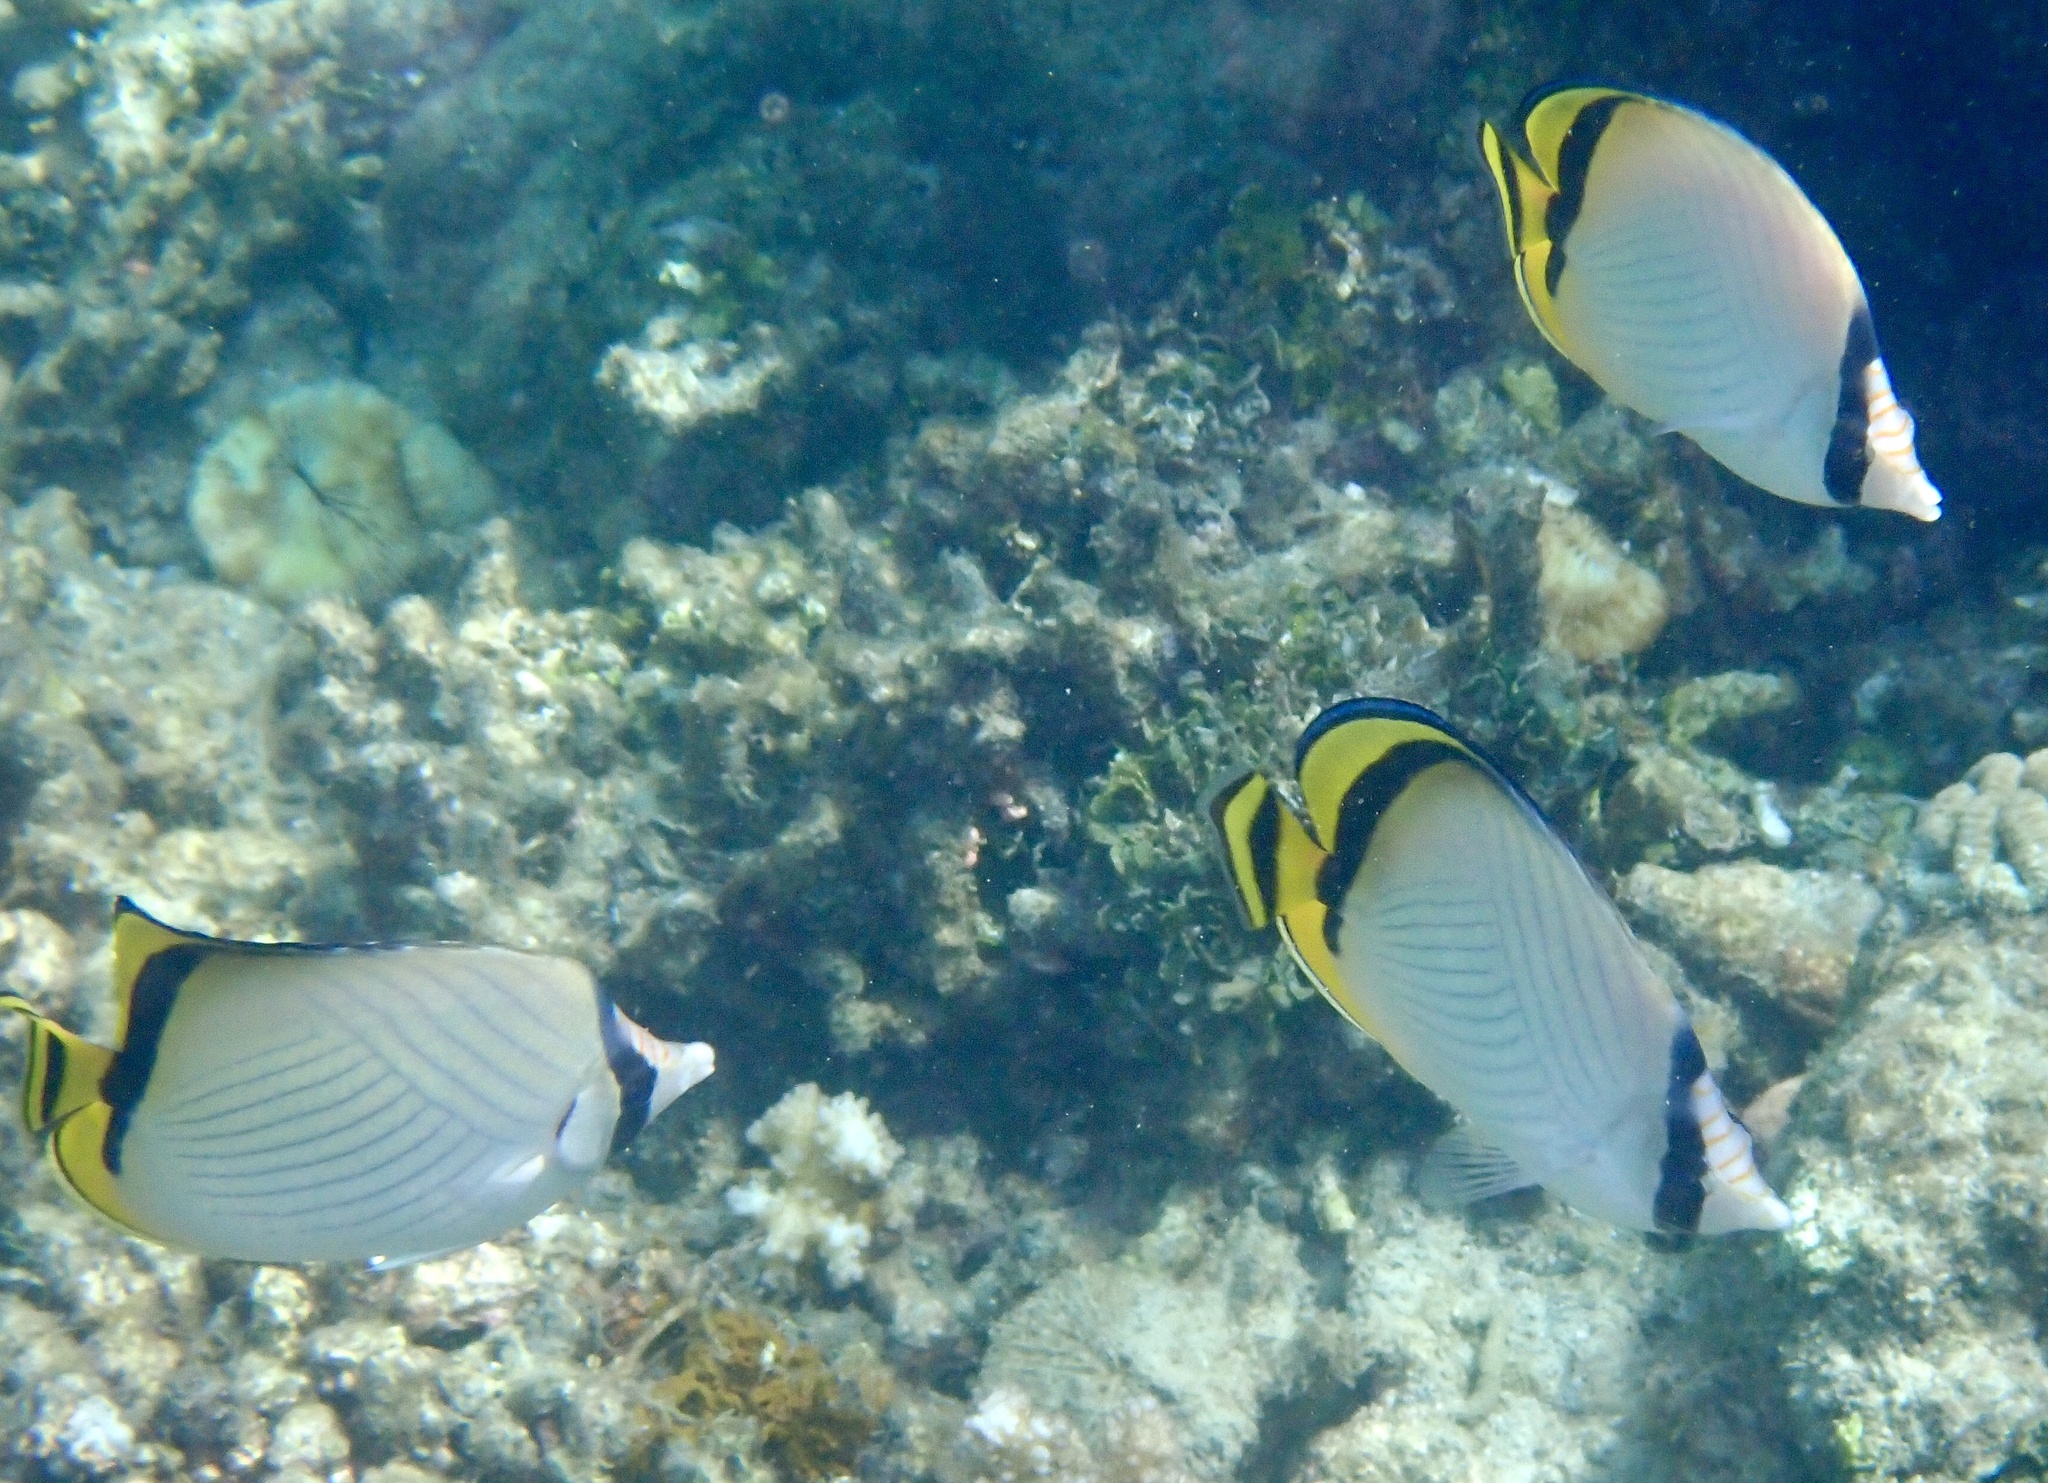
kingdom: Animalia
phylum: Chordata
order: Perciformes
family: Chaetodontidae
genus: Chaetodon
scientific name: Chaetodon vagabundus
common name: Vagabond butterflyfish
